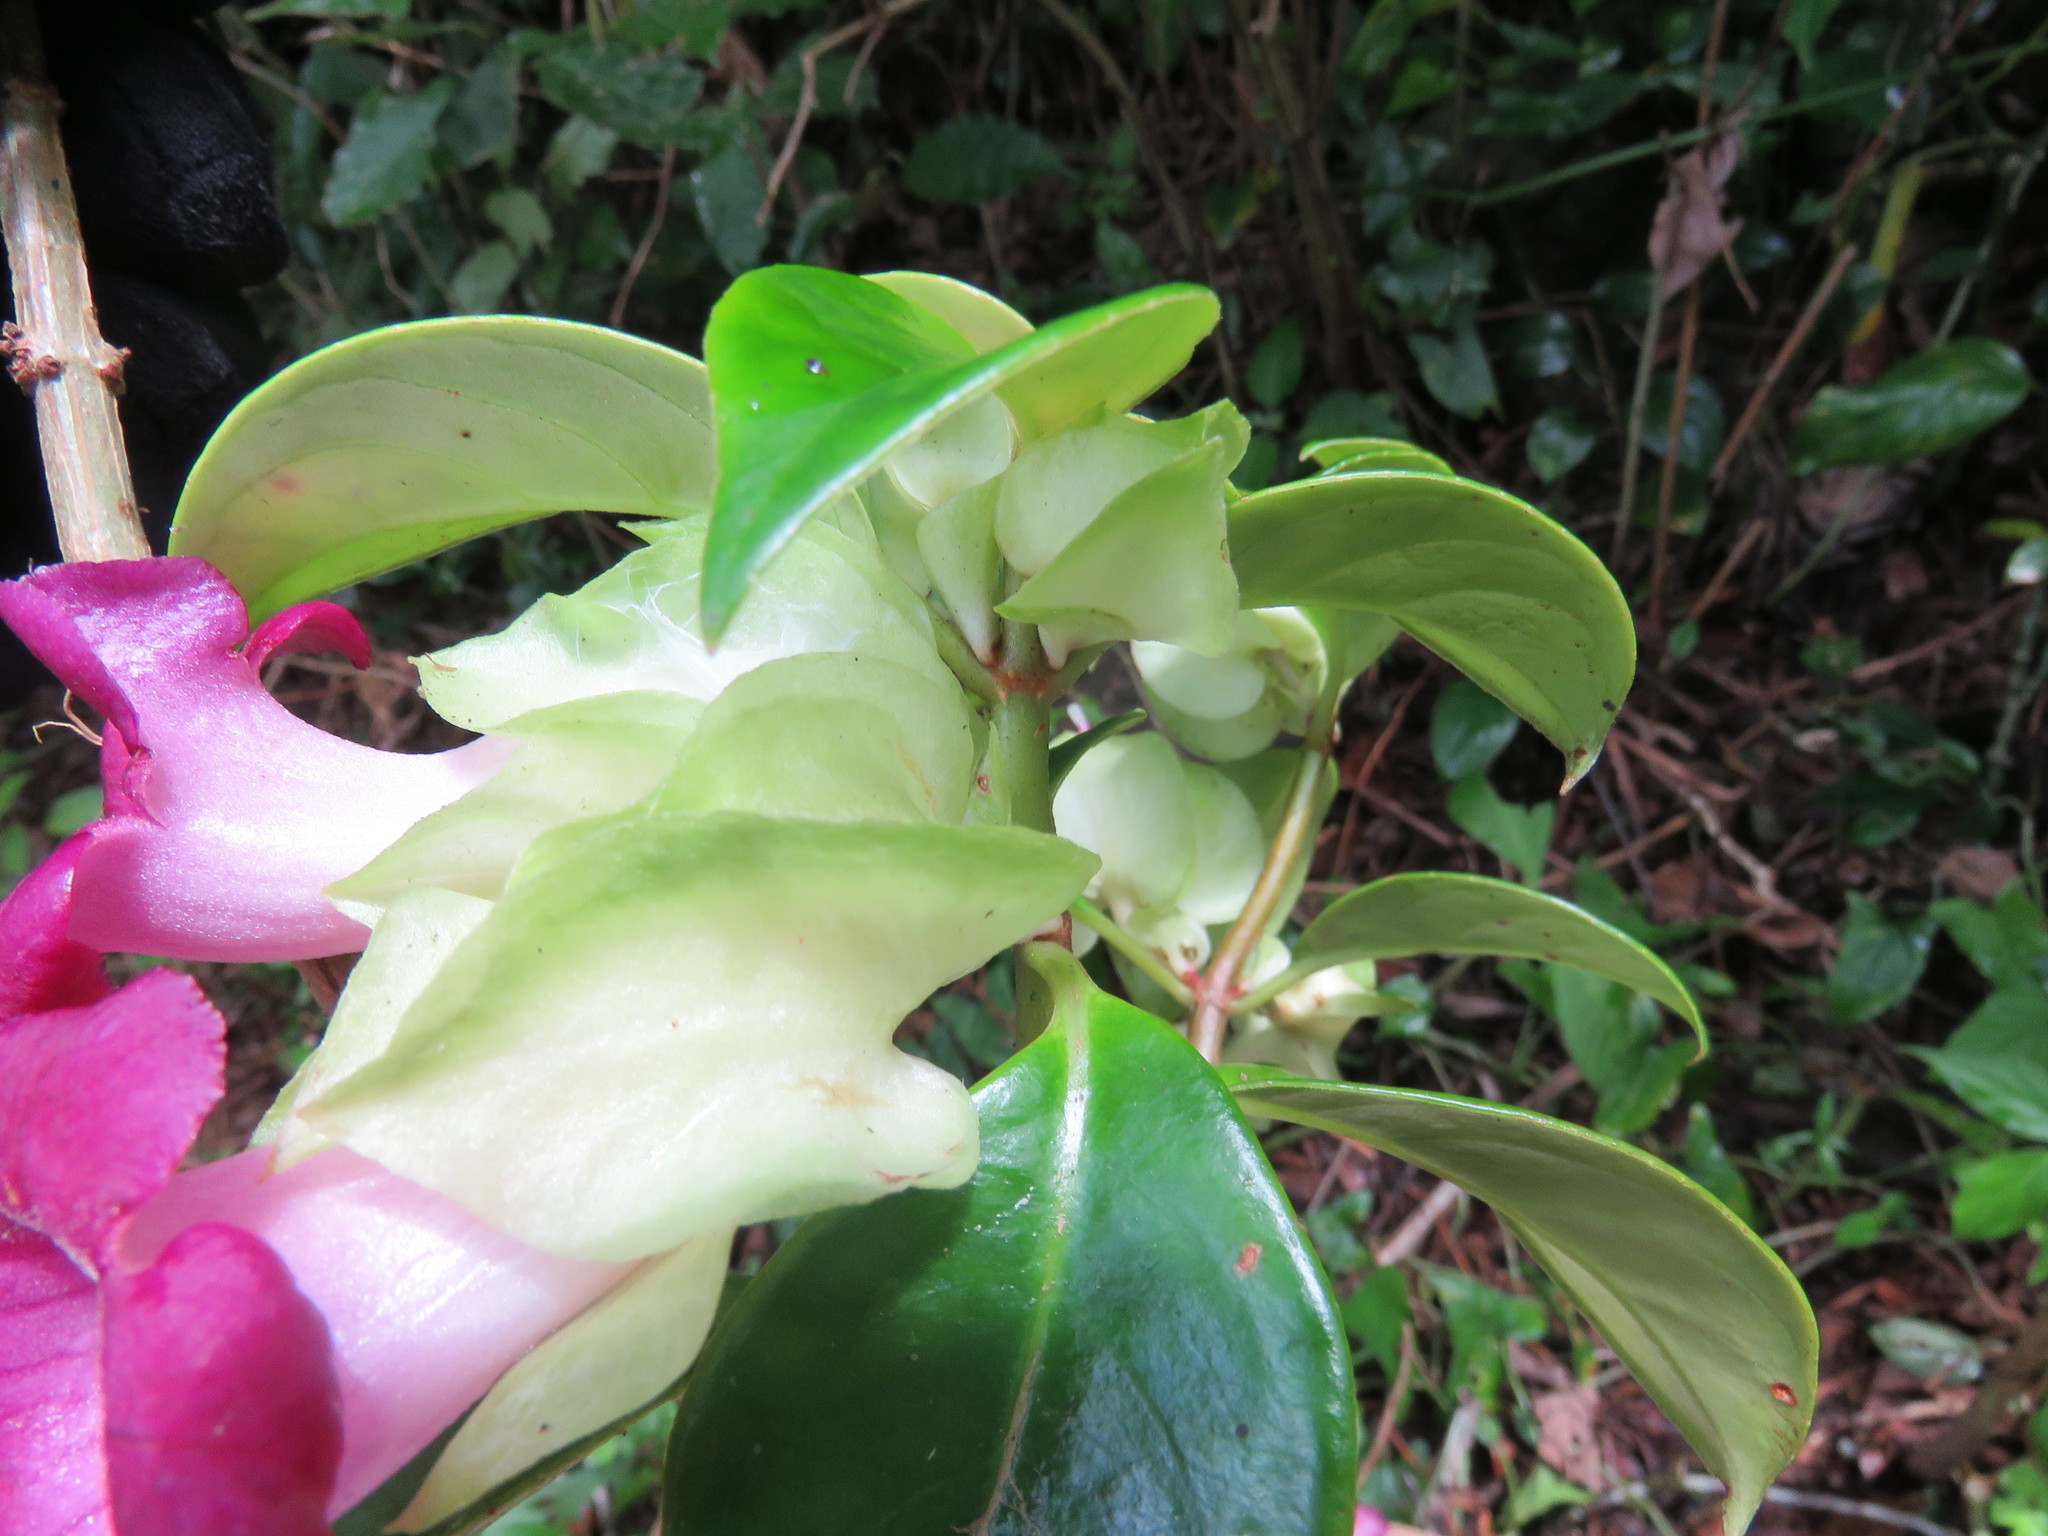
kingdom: Plantae
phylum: Tracheophyta
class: Magnoliopsida
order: Lamiales
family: Gesneriaceae
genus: Drymonia
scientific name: Drymonia mexicana
